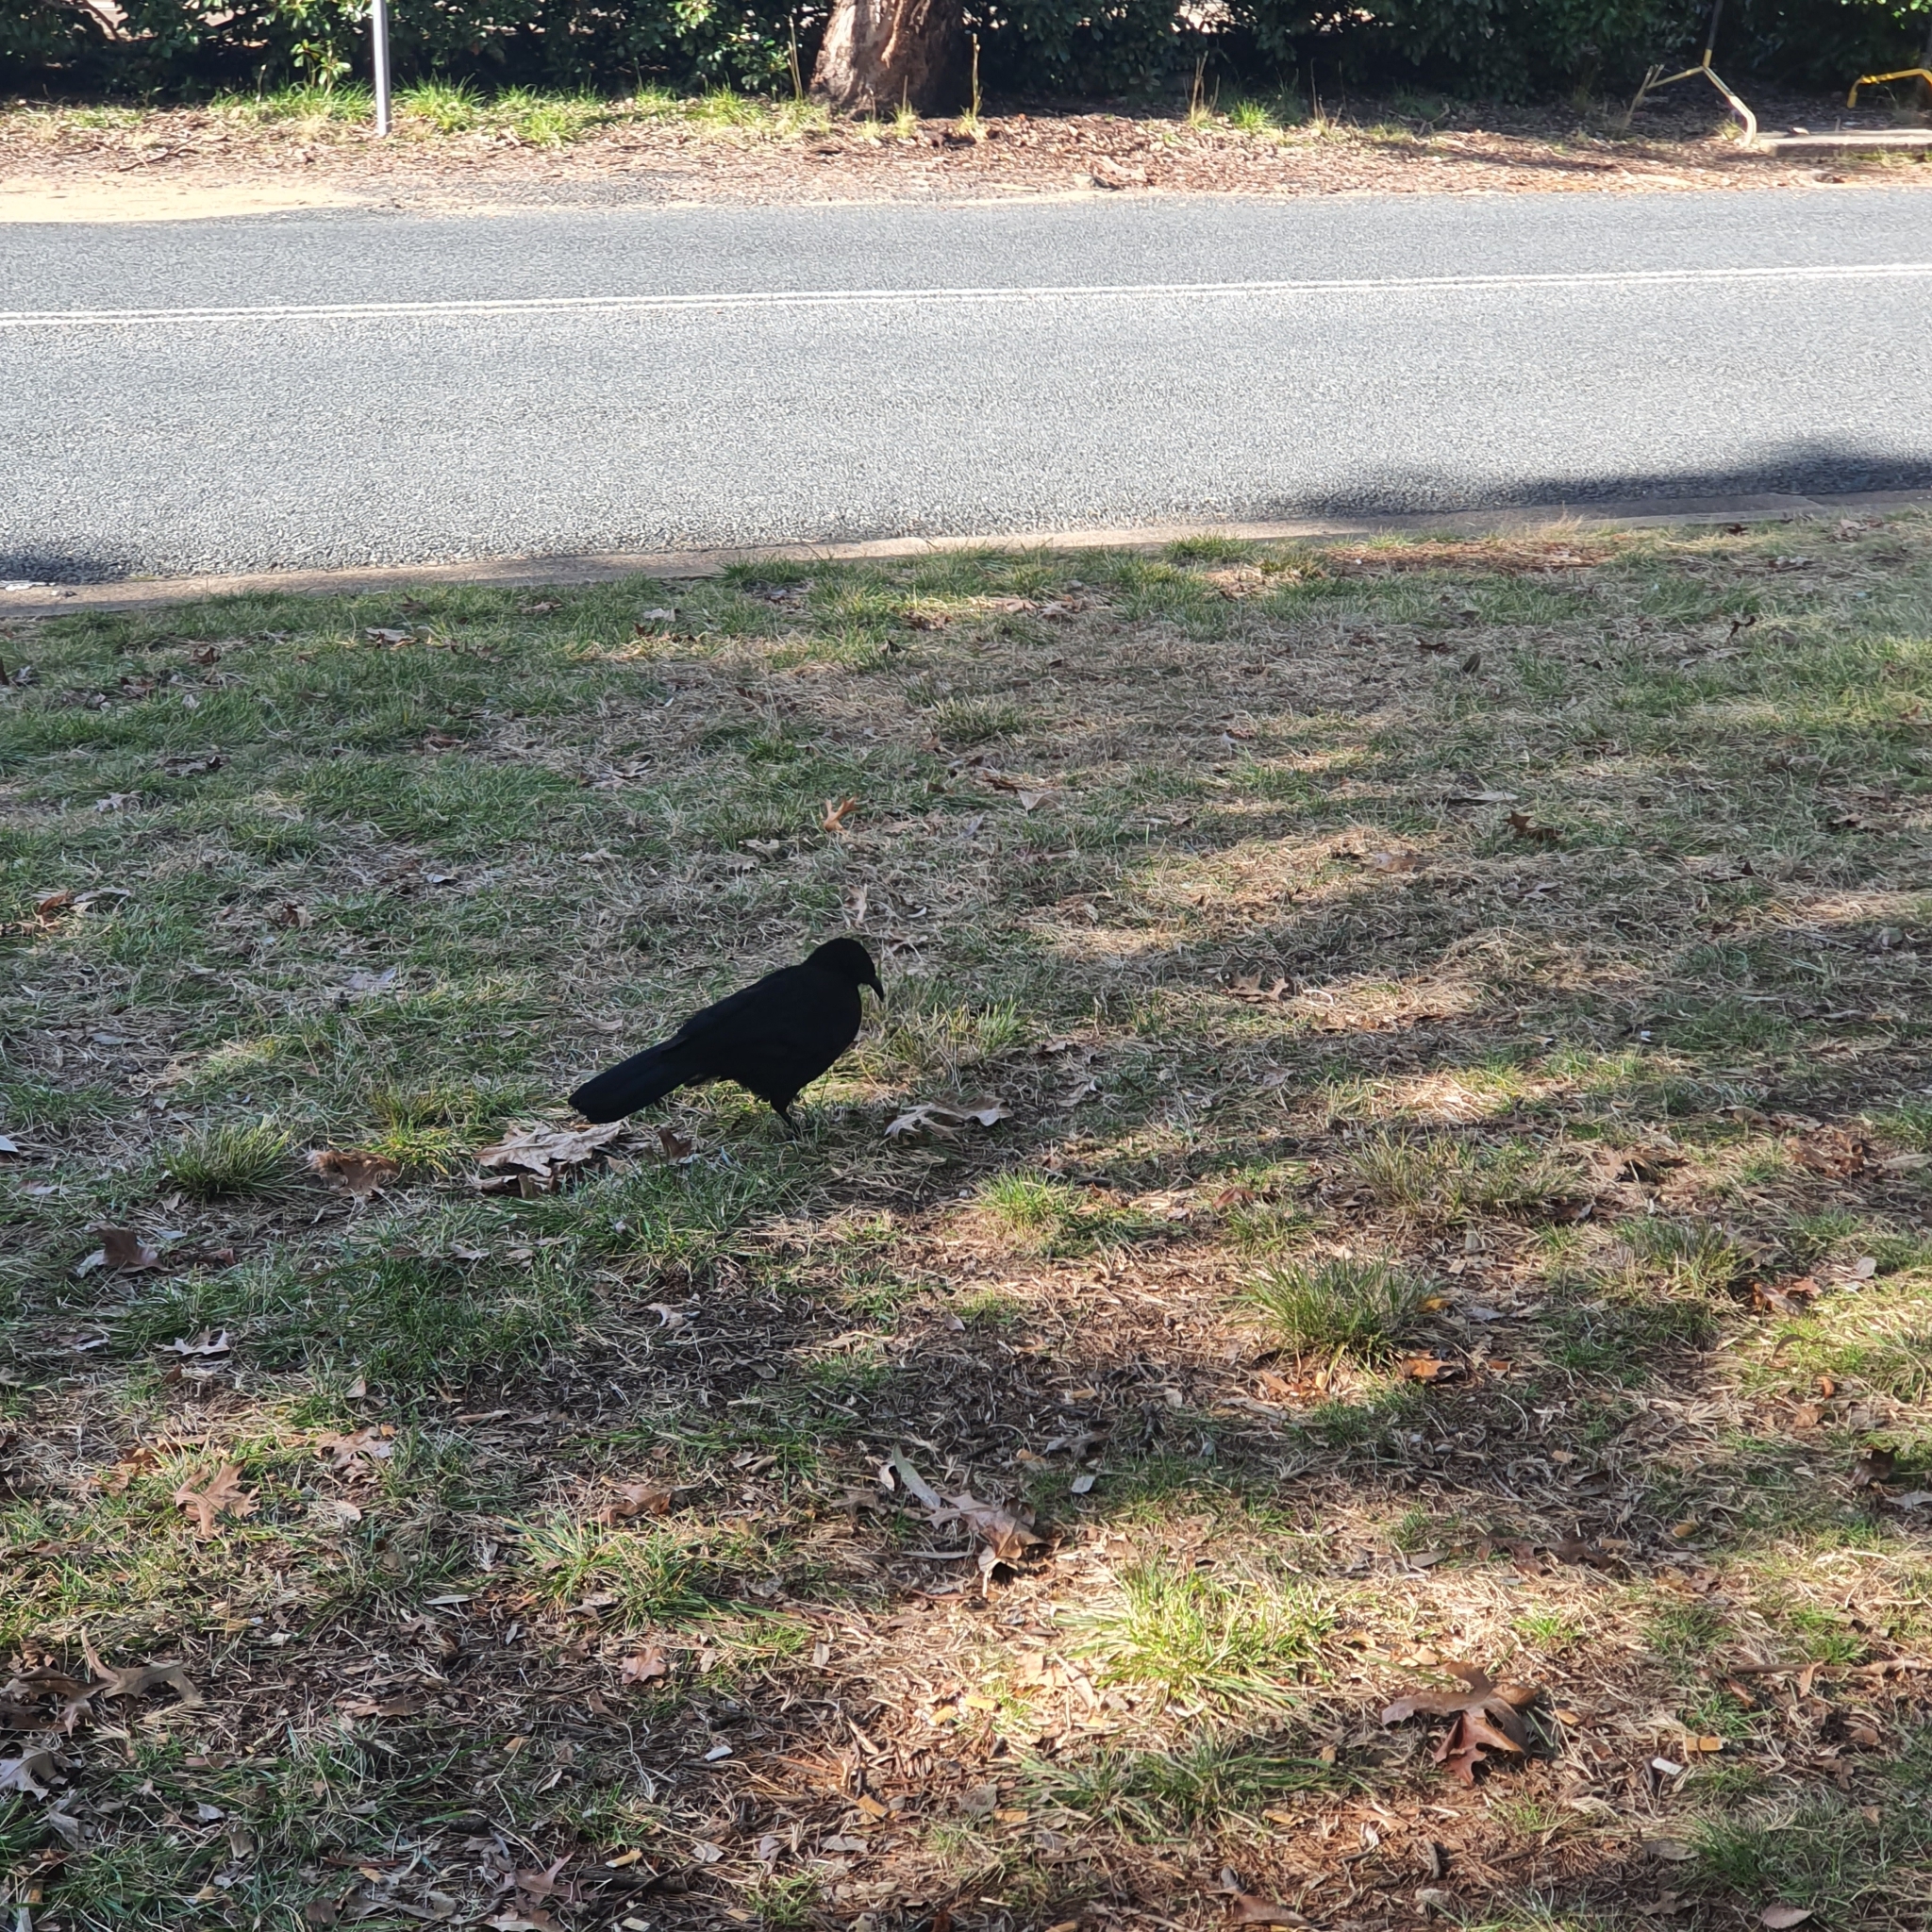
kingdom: Animalia
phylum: Chordata
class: Aves
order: Passeriformes
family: Corcoracidae
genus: Corcorax
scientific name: Corcorax melanoramphos
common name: White-winged chough
